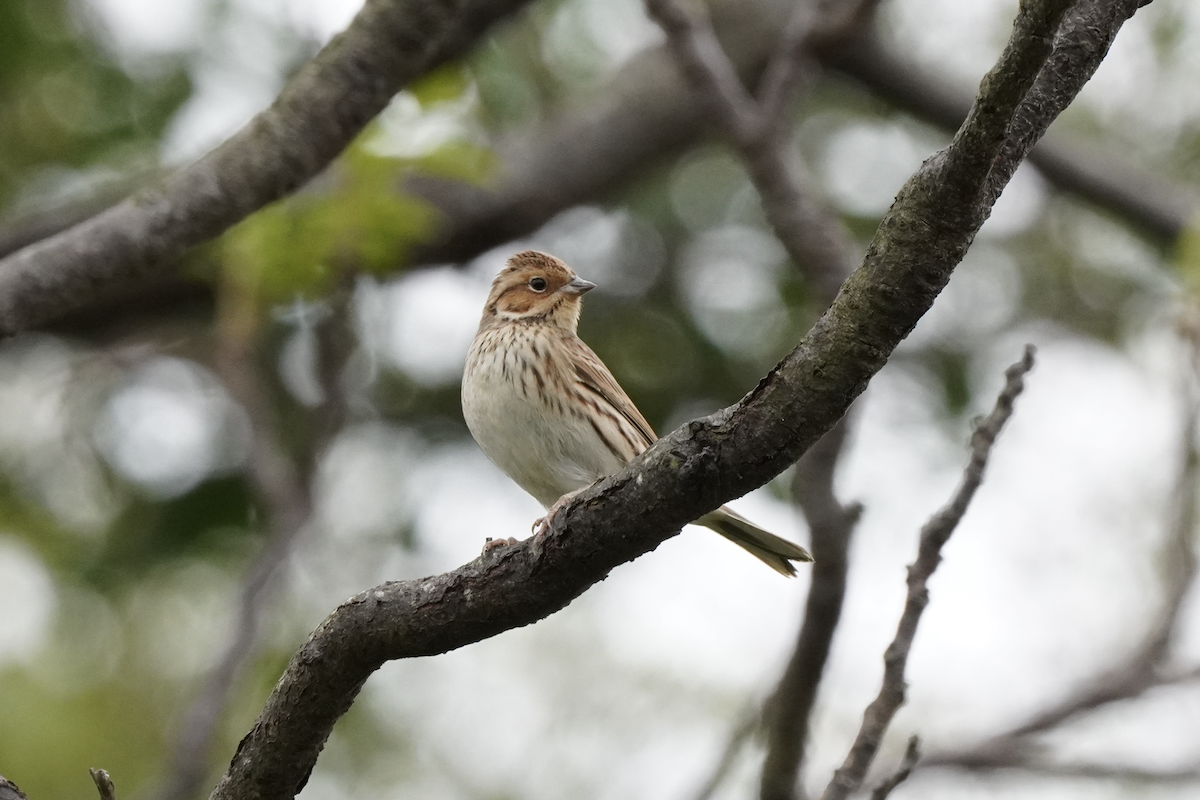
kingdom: Animalia
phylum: Chordata
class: Aves
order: Passeriformes
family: Emberizidae
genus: Emberiza
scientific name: Emberiza pusilla
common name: Little bunting
